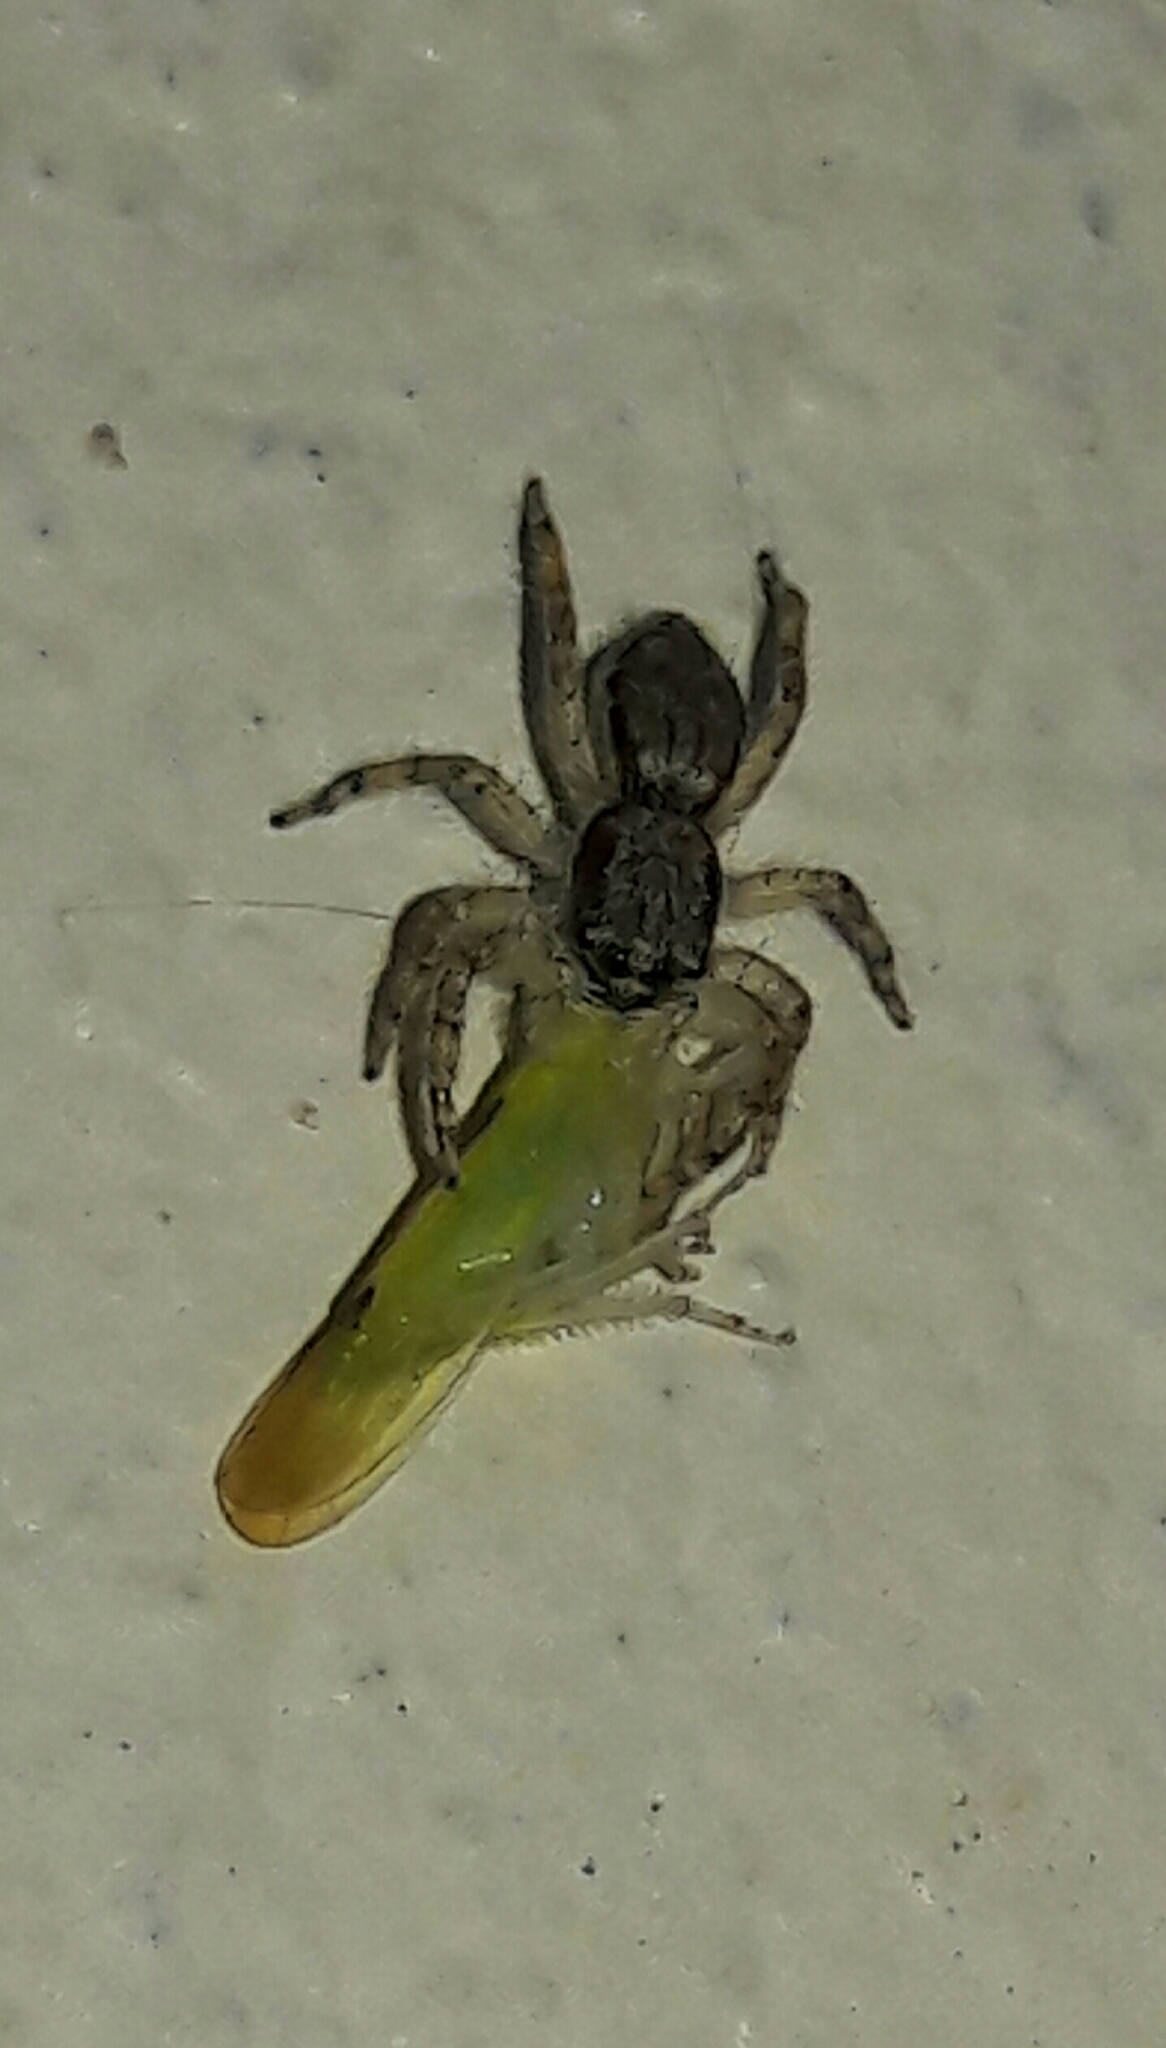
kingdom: Animalia
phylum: Arthropoda
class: Arachnida
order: Araneae
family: Salticidae
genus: Menemerus
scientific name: Menemerus bivittatus
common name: Gray wall jumper
